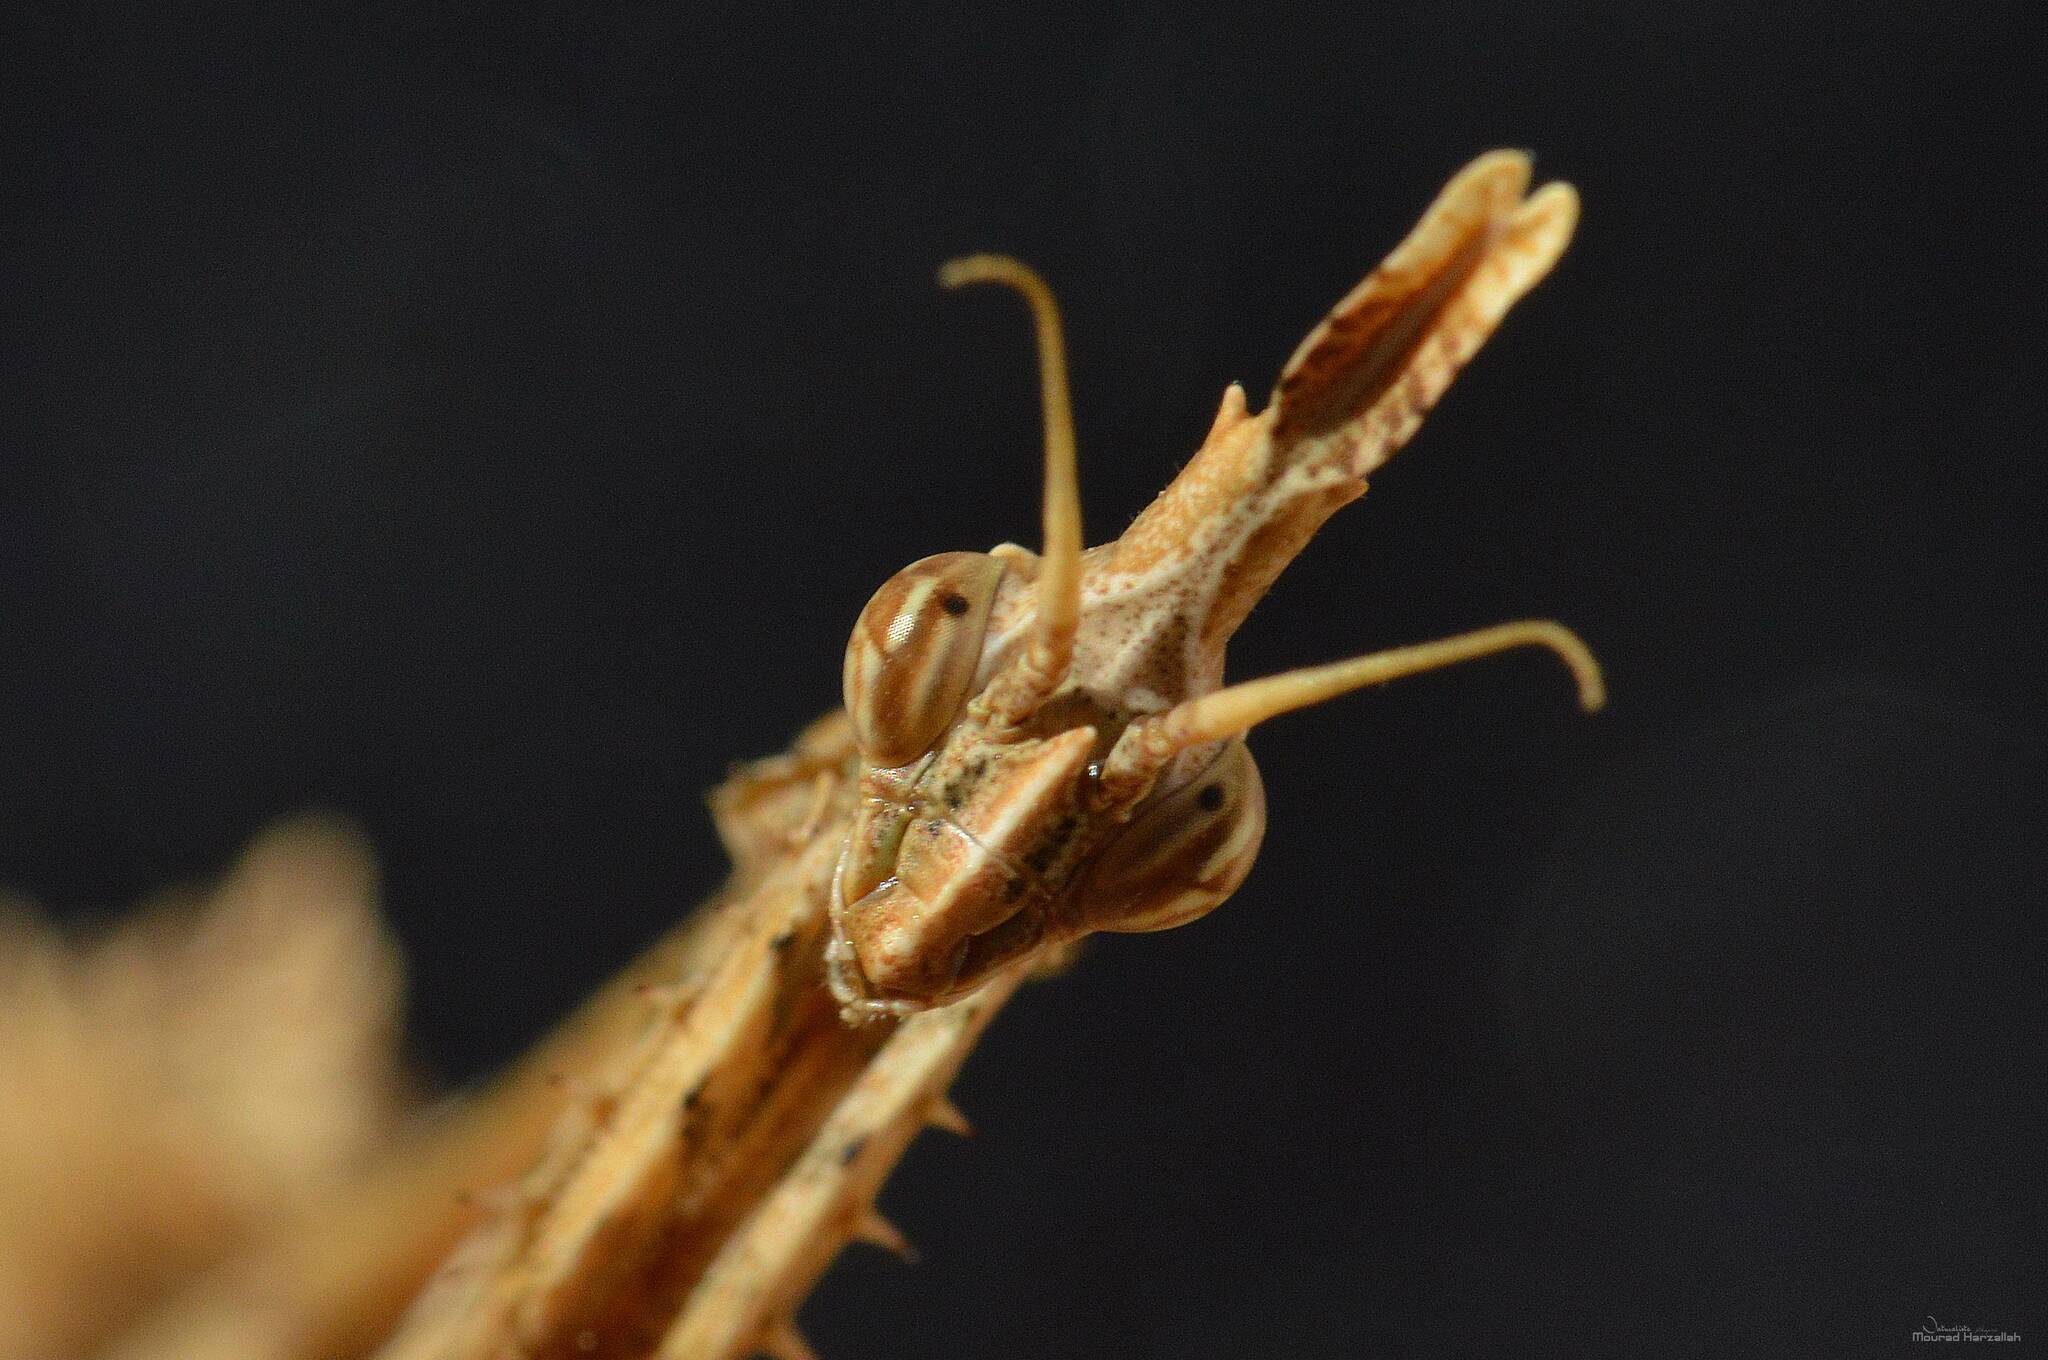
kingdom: Animalia
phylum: Arthropoda
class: Insecta
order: Mantodea
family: Empusidae
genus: Empusa
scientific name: Empusa pennata
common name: Conehead mantis
